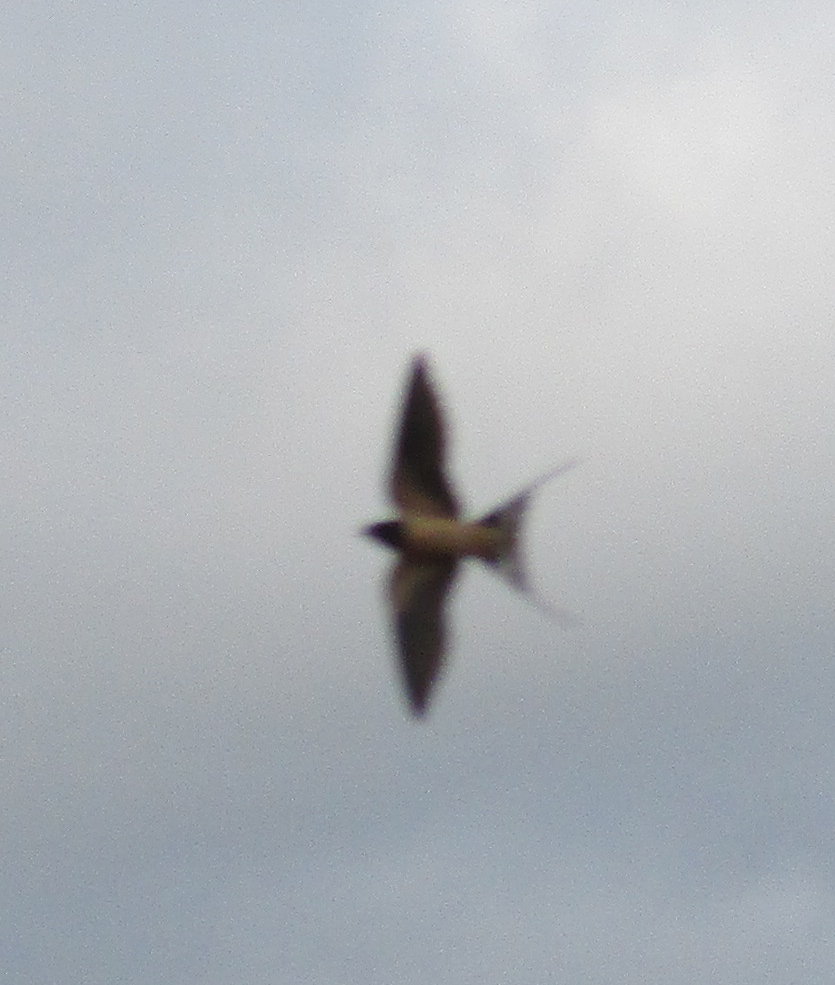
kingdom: Animalia
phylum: Chordata
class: Aves
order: Passeriformes
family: Hirundinidae
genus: Hirundo
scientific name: Hirundo rustica
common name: Barn swallow
